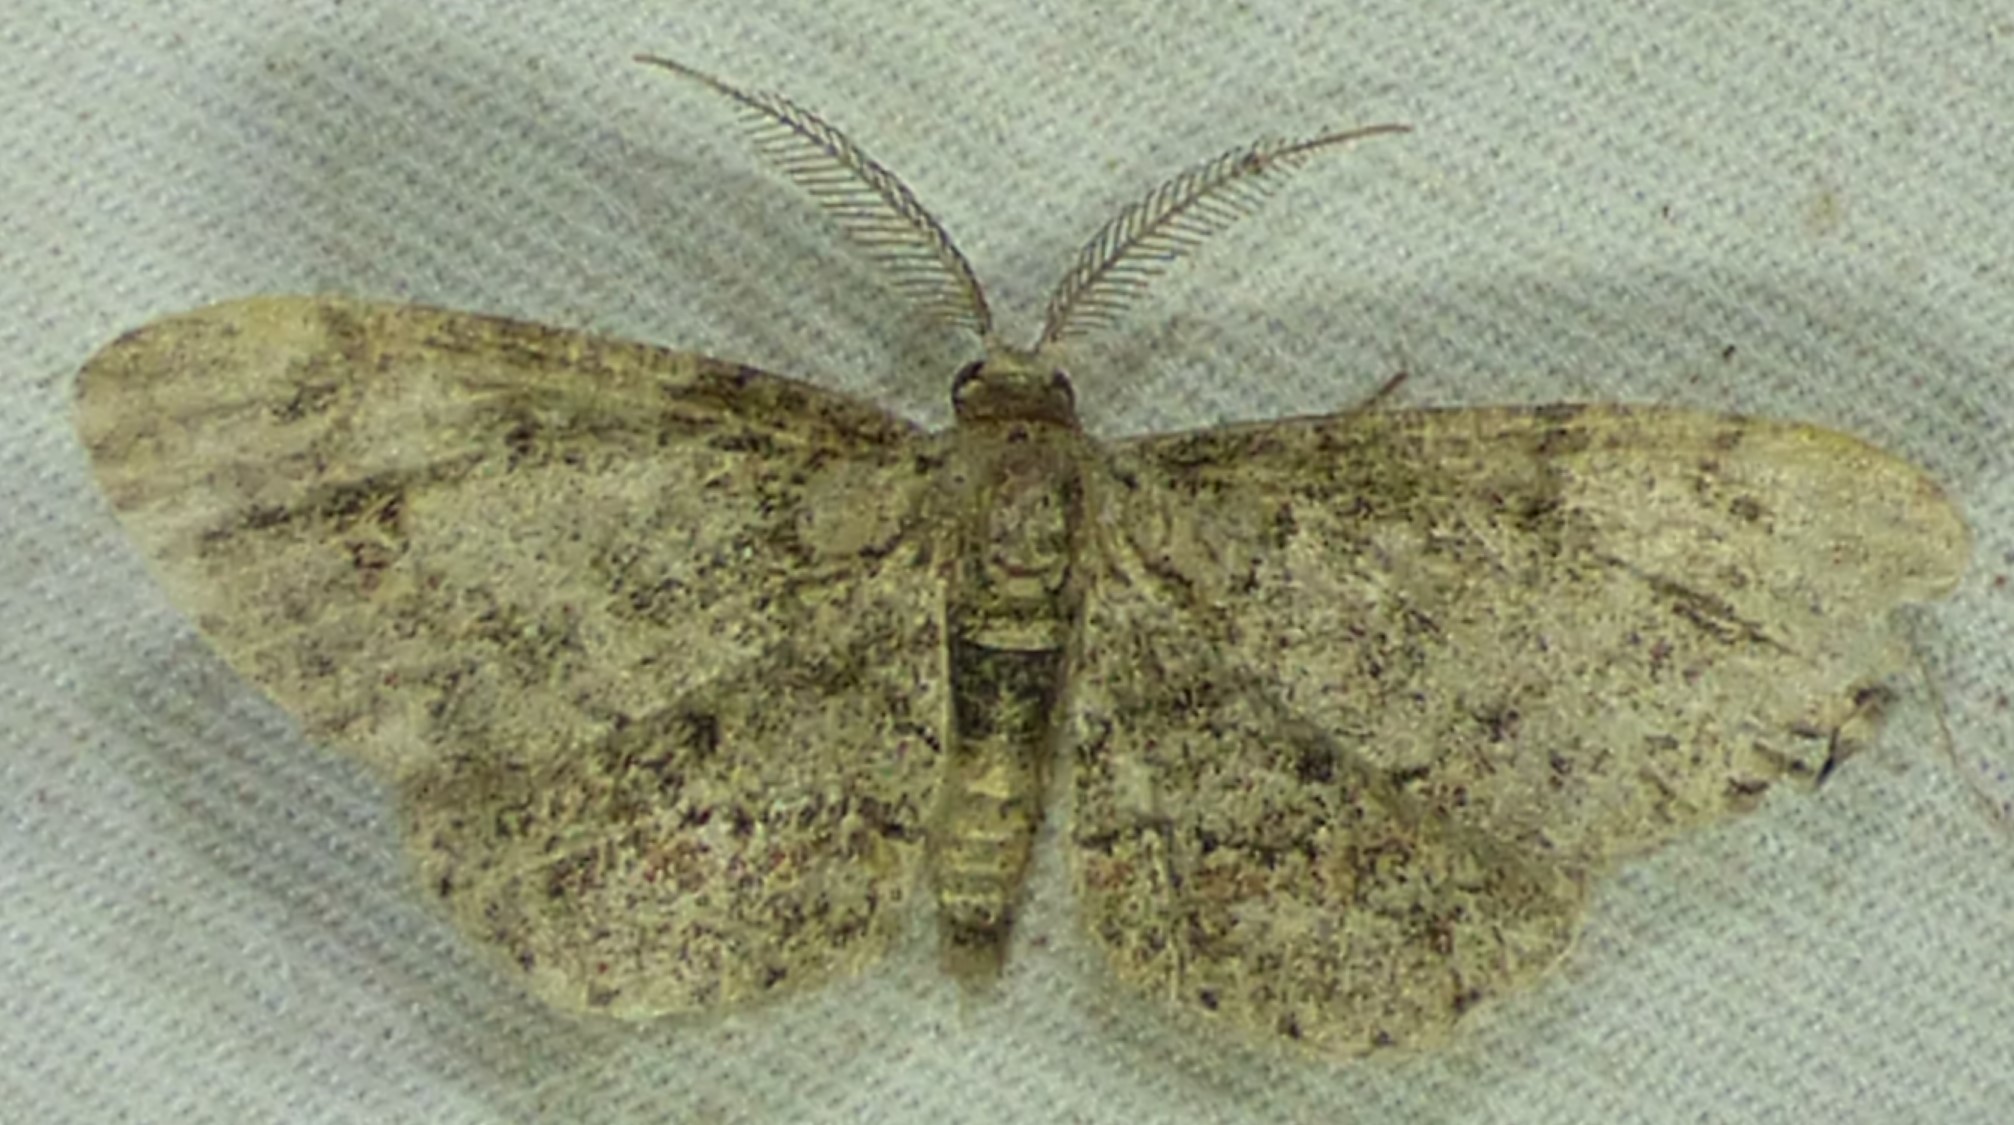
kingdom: Animalia
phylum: Arthropoda
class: Insecta
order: Lepidoptera
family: Geometridae
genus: Glenoides
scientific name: Glenoides texanaria
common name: Texas gray
